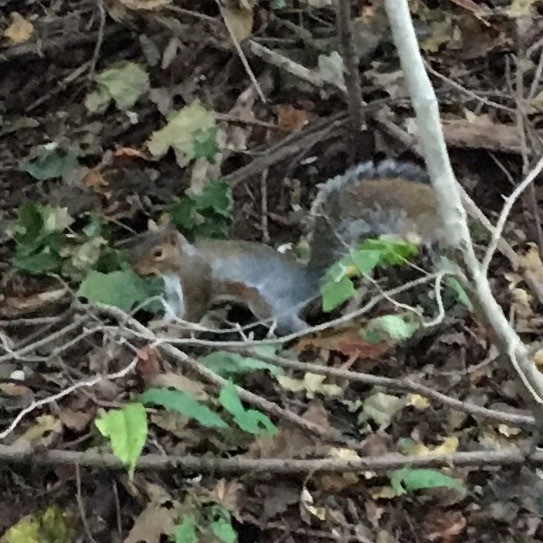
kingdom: Animalia
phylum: Chordata
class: Mammalia
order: Rodentia
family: Sciuridae
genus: Sciurus
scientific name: Sciurus carolinensis
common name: Eastern gray squirrel
